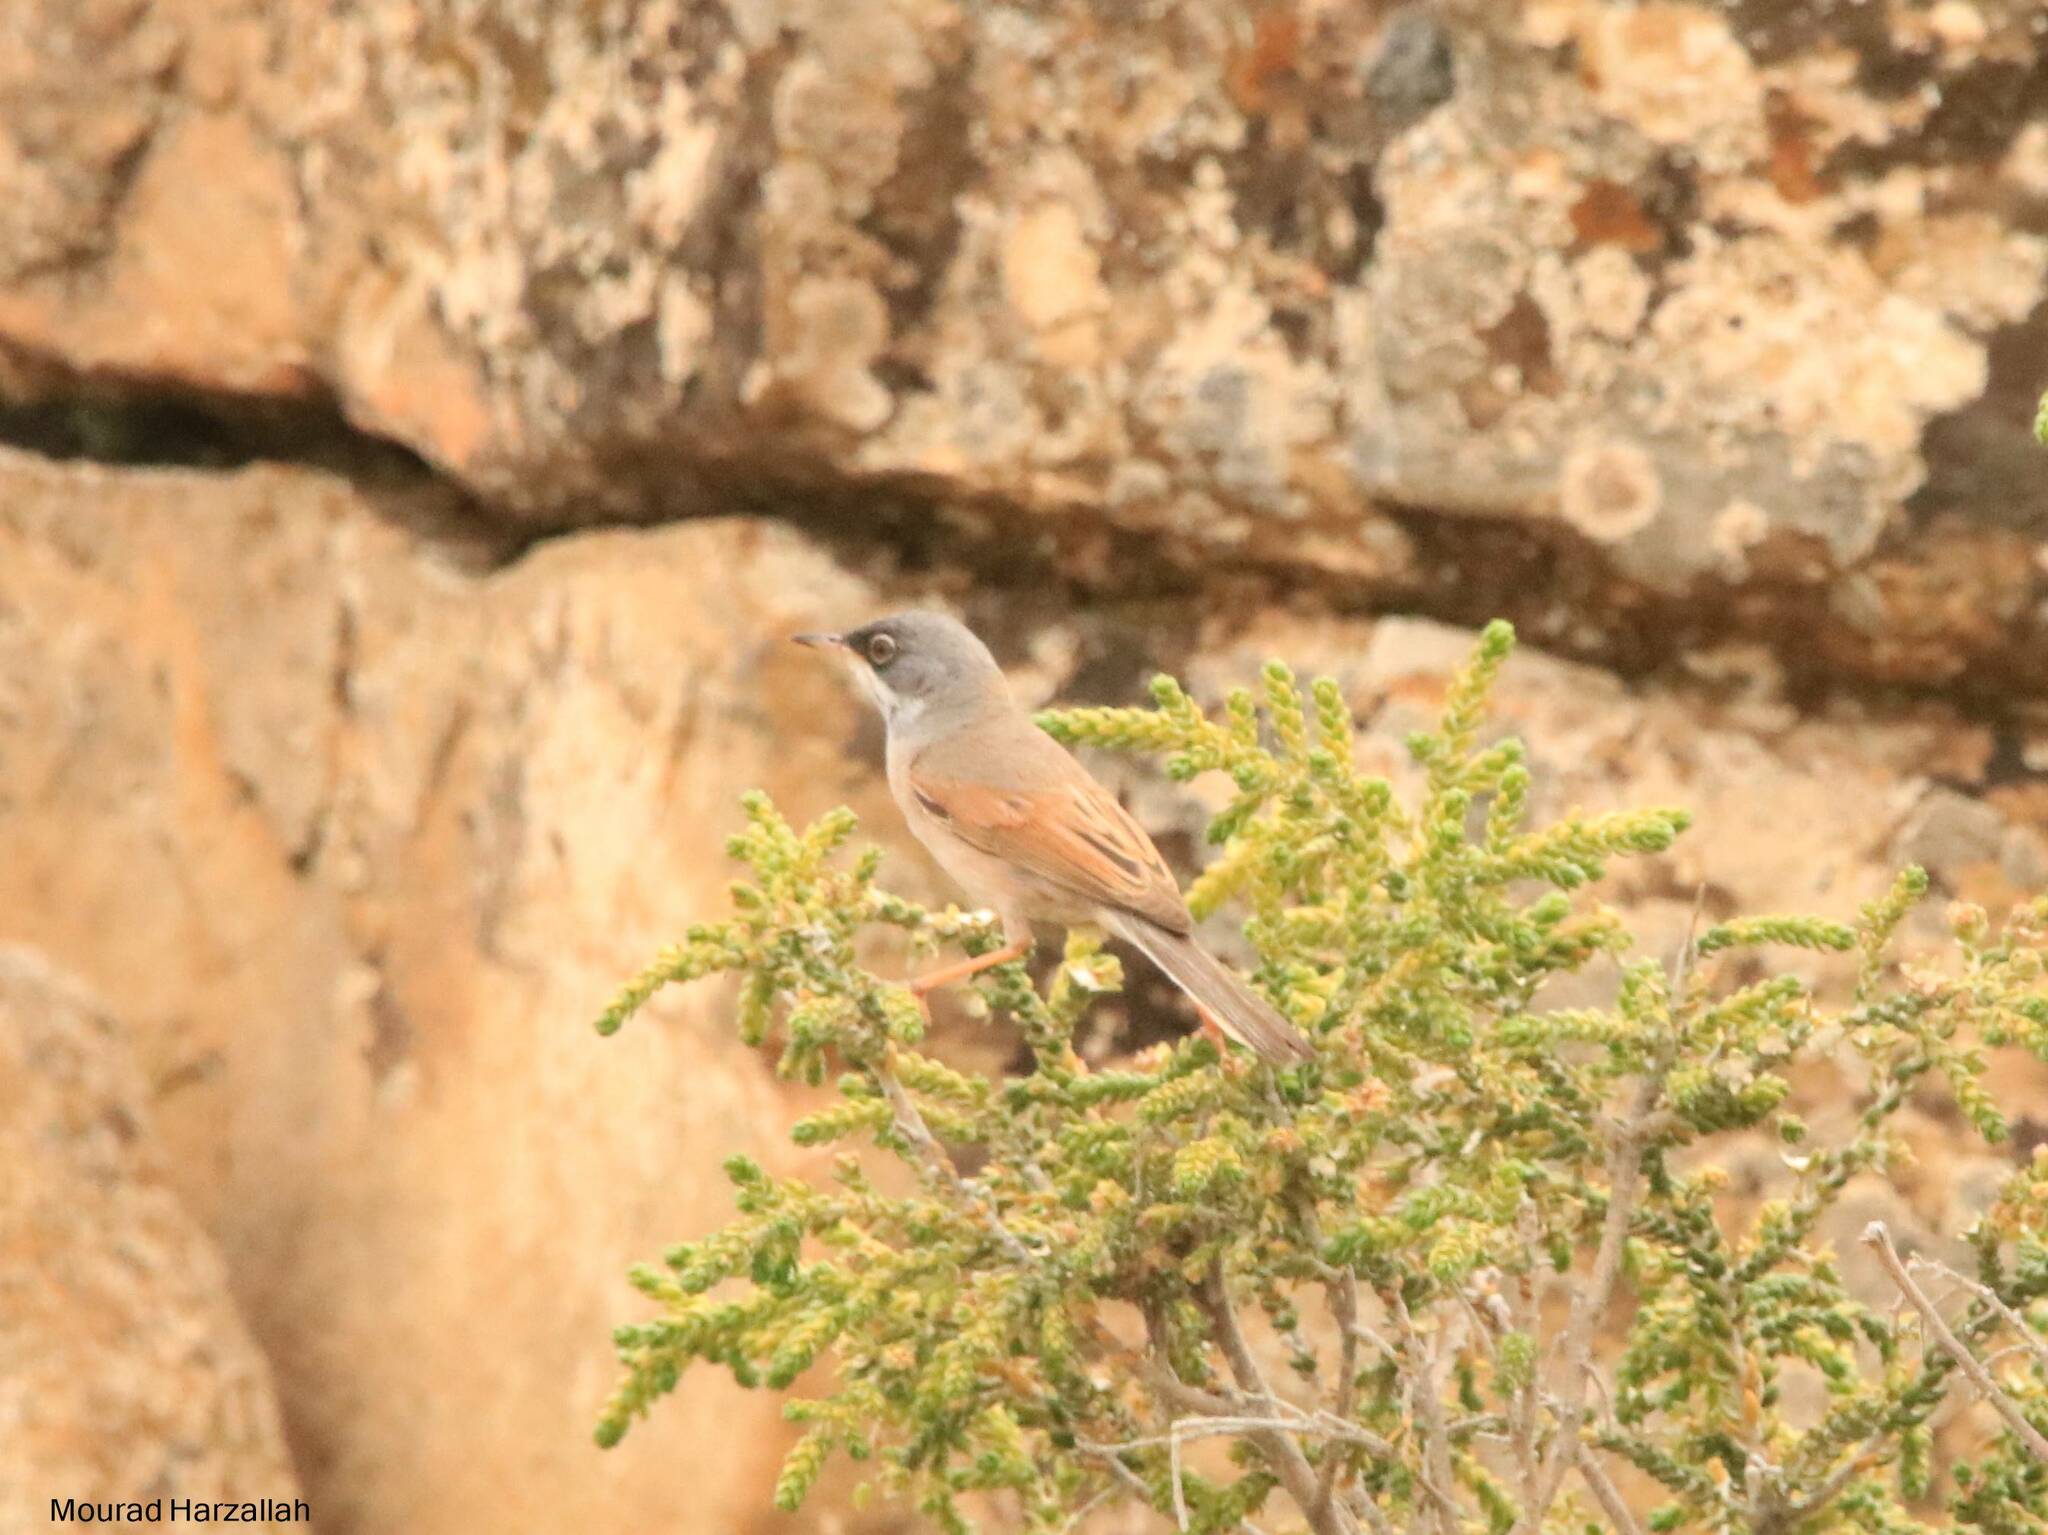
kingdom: Animalia
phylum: Chordata
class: Aves
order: Passeriformes
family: Sylviidae
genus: Sylvia
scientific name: Sylvia conspicillata
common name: Spectacled warbler
